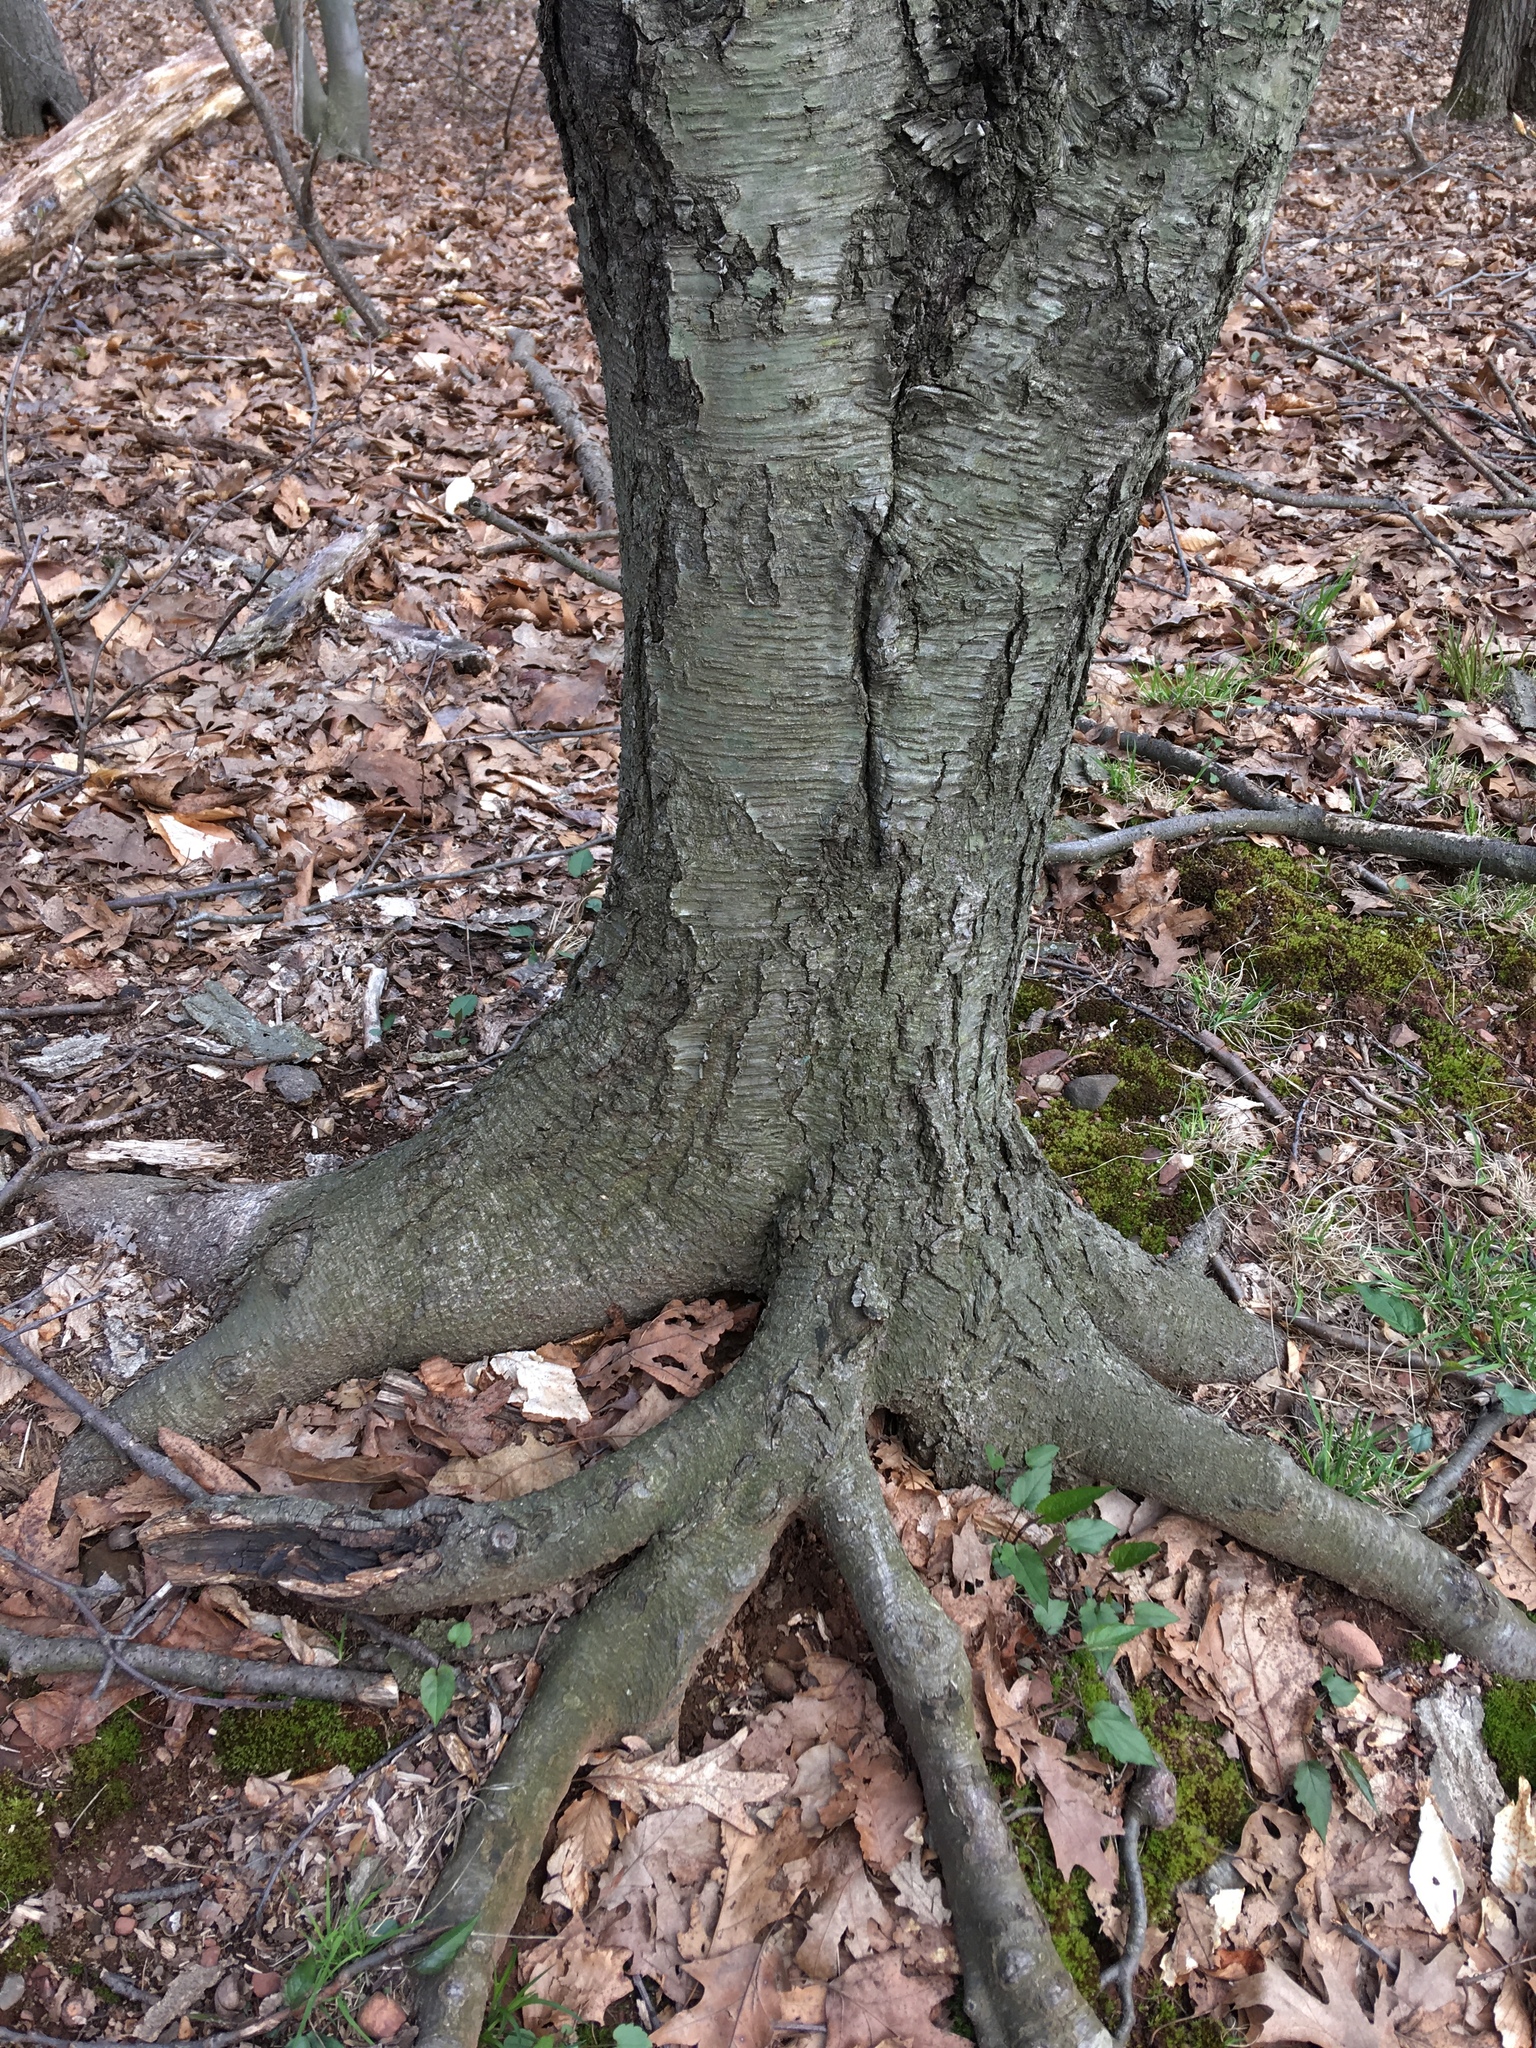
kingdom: Plantae
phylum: Tracheophyta
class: Magnoliopsida
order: Fagales
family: Betulaceae
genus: Betula
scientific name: Betula lenta
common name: Black birch
